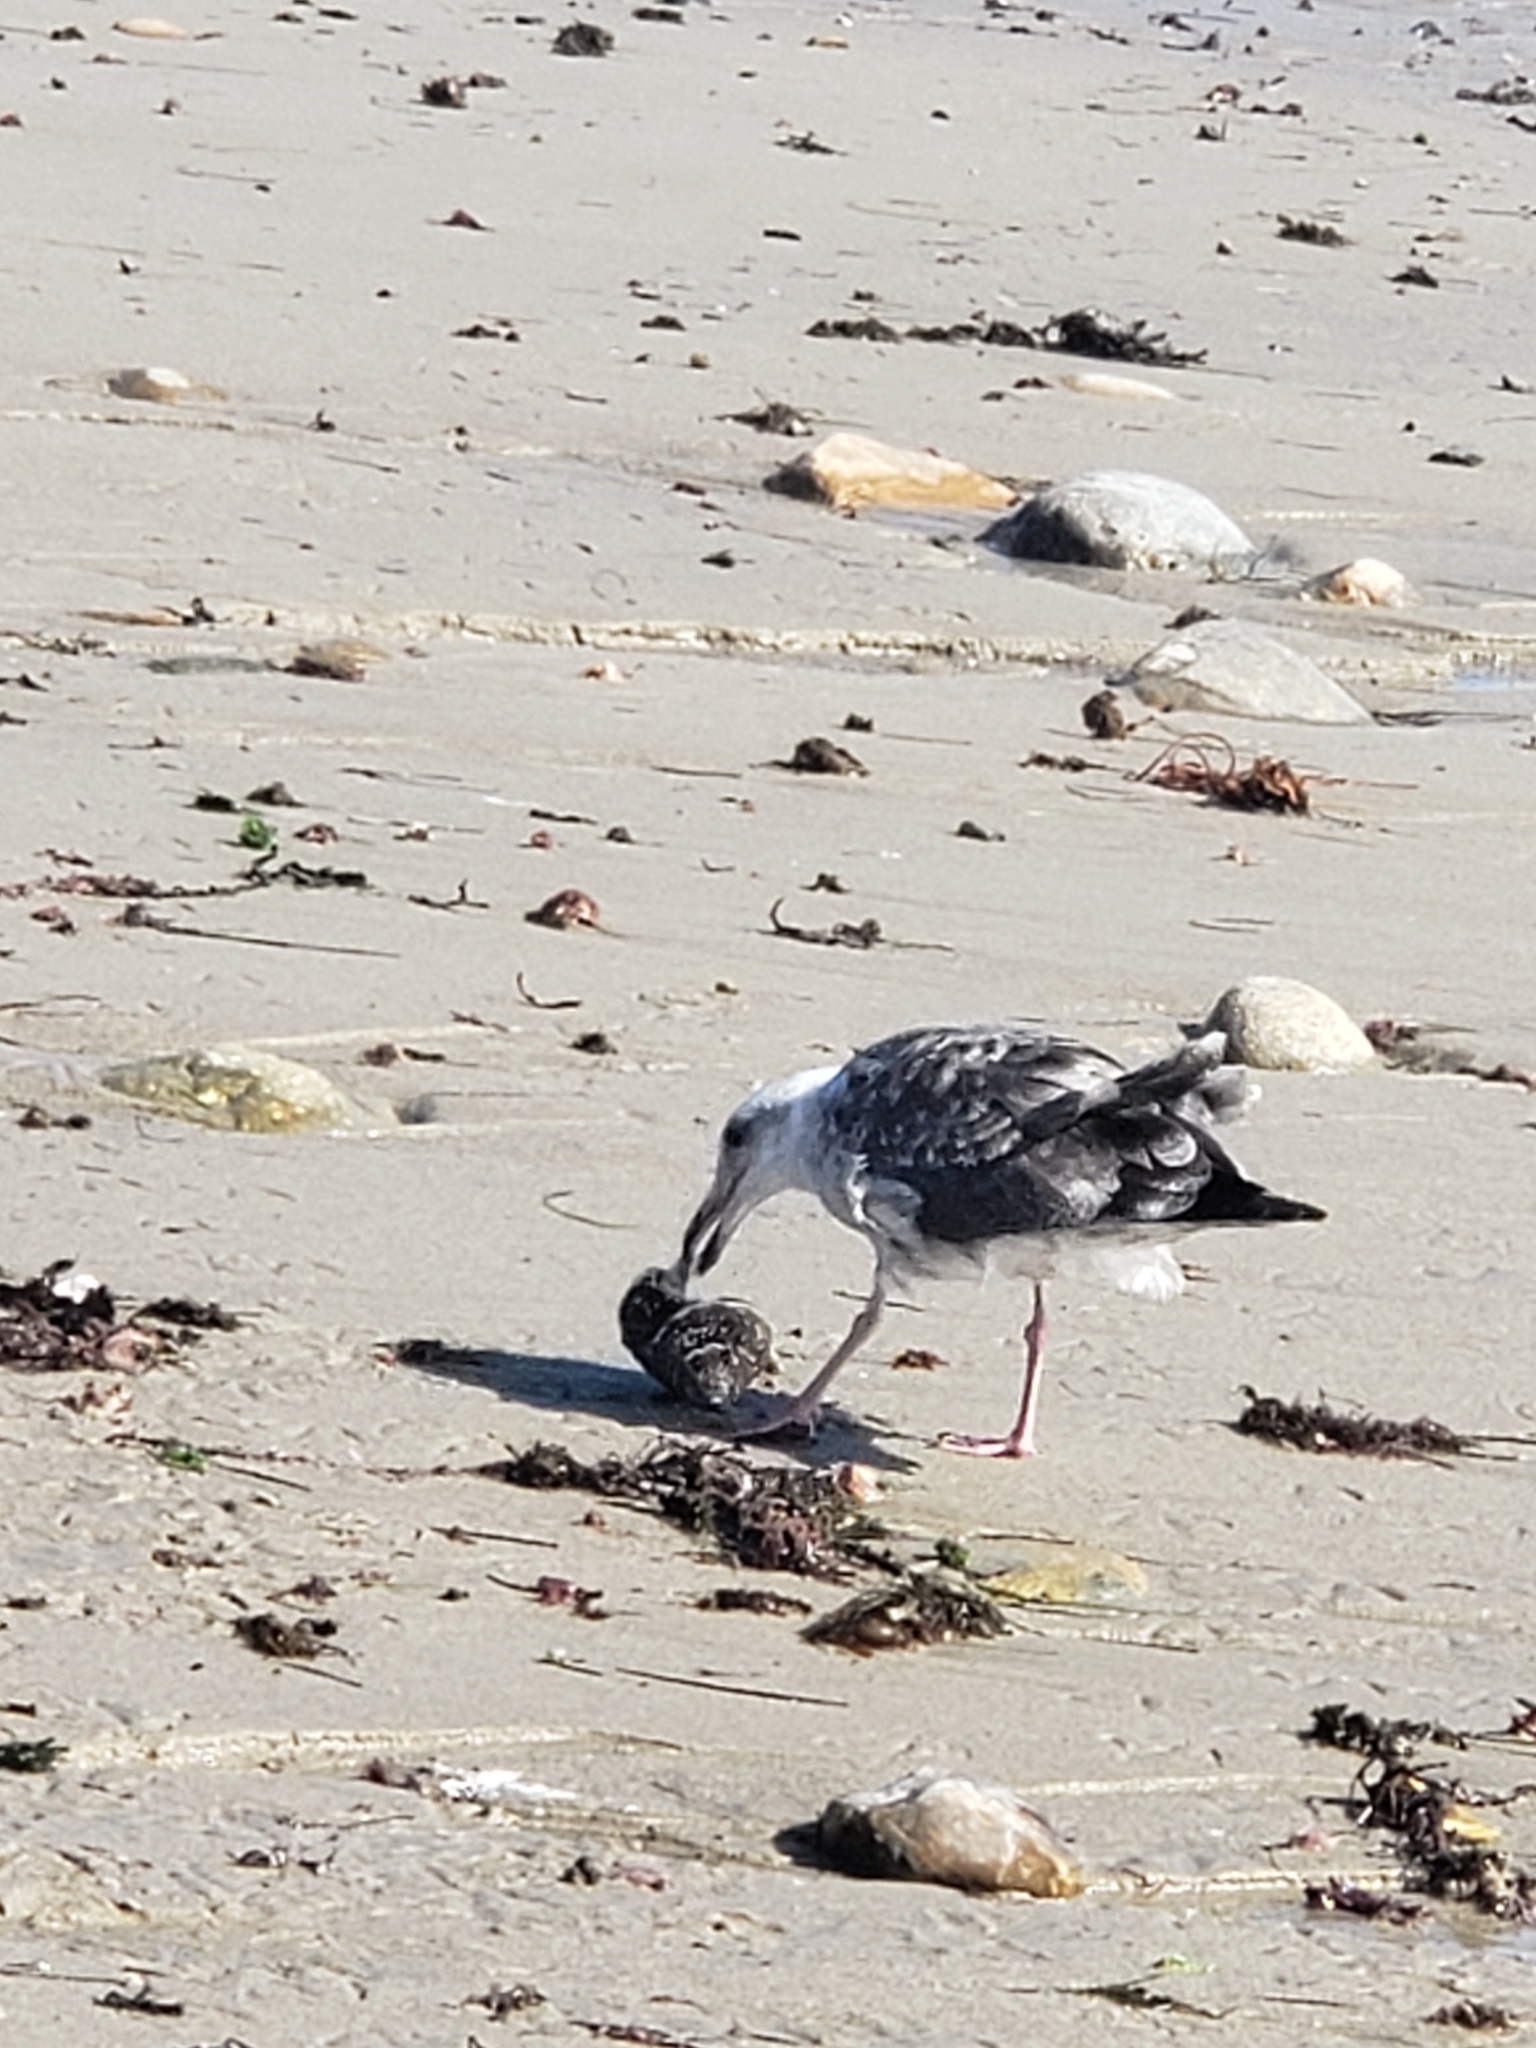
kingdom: Animalia
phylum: Mollusca
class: Gastropoda
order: Trochida
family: Turbinidae
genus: Megastraea
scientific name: Megastraea undosa
